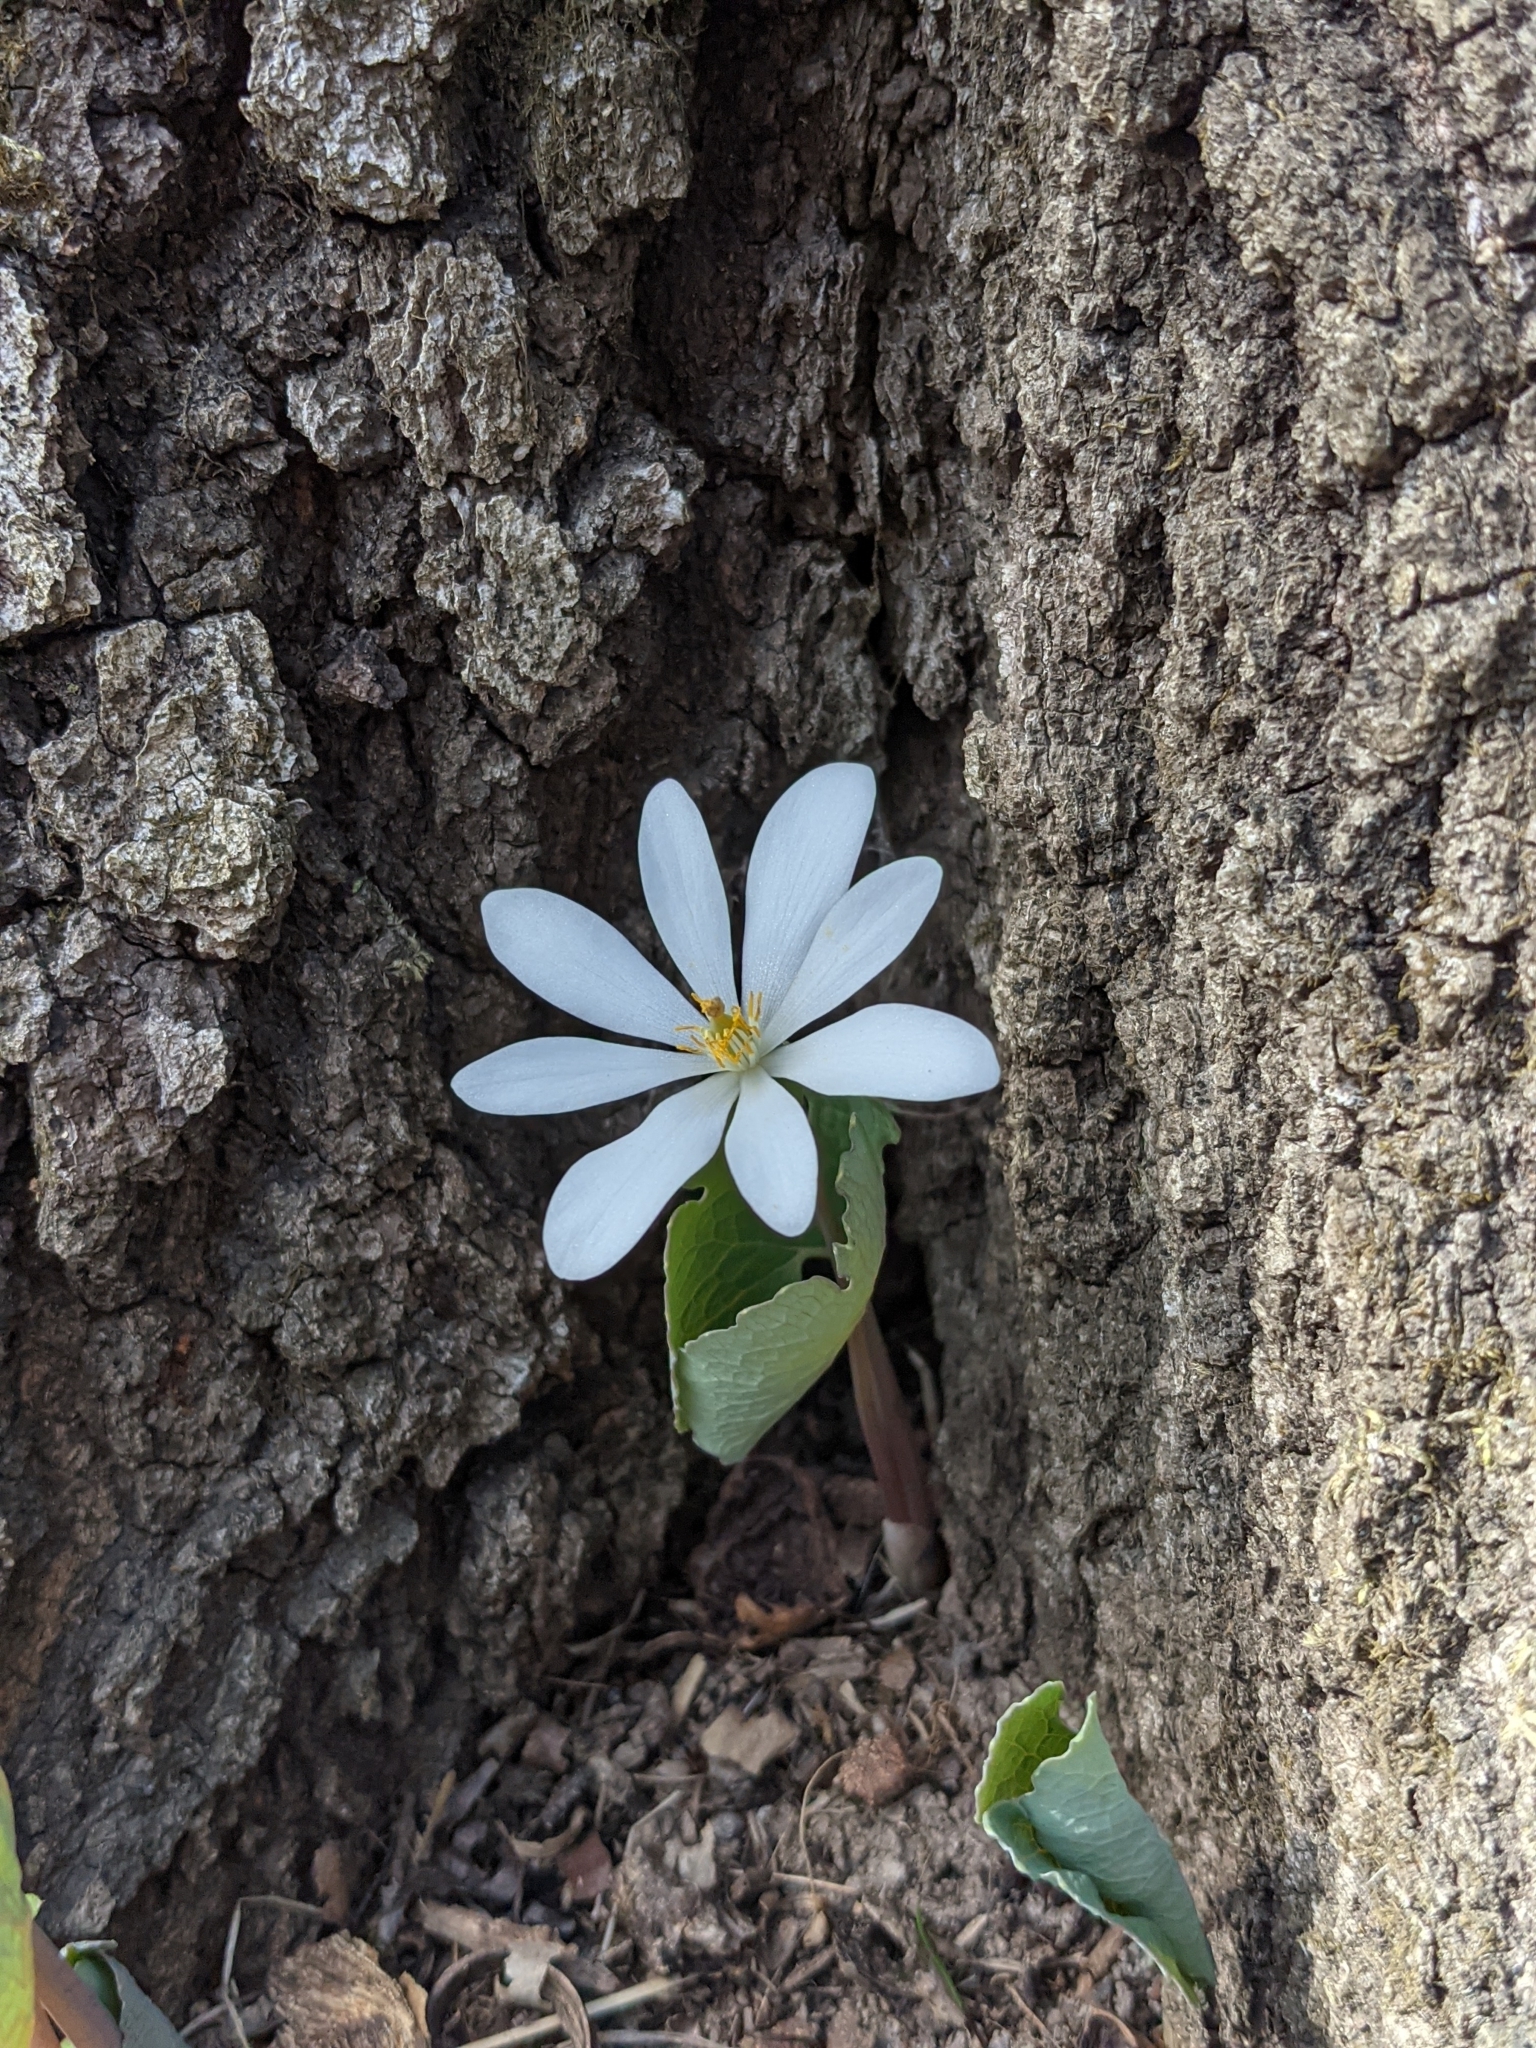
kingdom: Plantae
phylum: Tracheophyta
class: Magnoliopsida
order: Ranunculales
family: Papaveraceae
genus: Sanguinaria
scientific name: Sanguinaria canadensis
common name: Bloodroot
